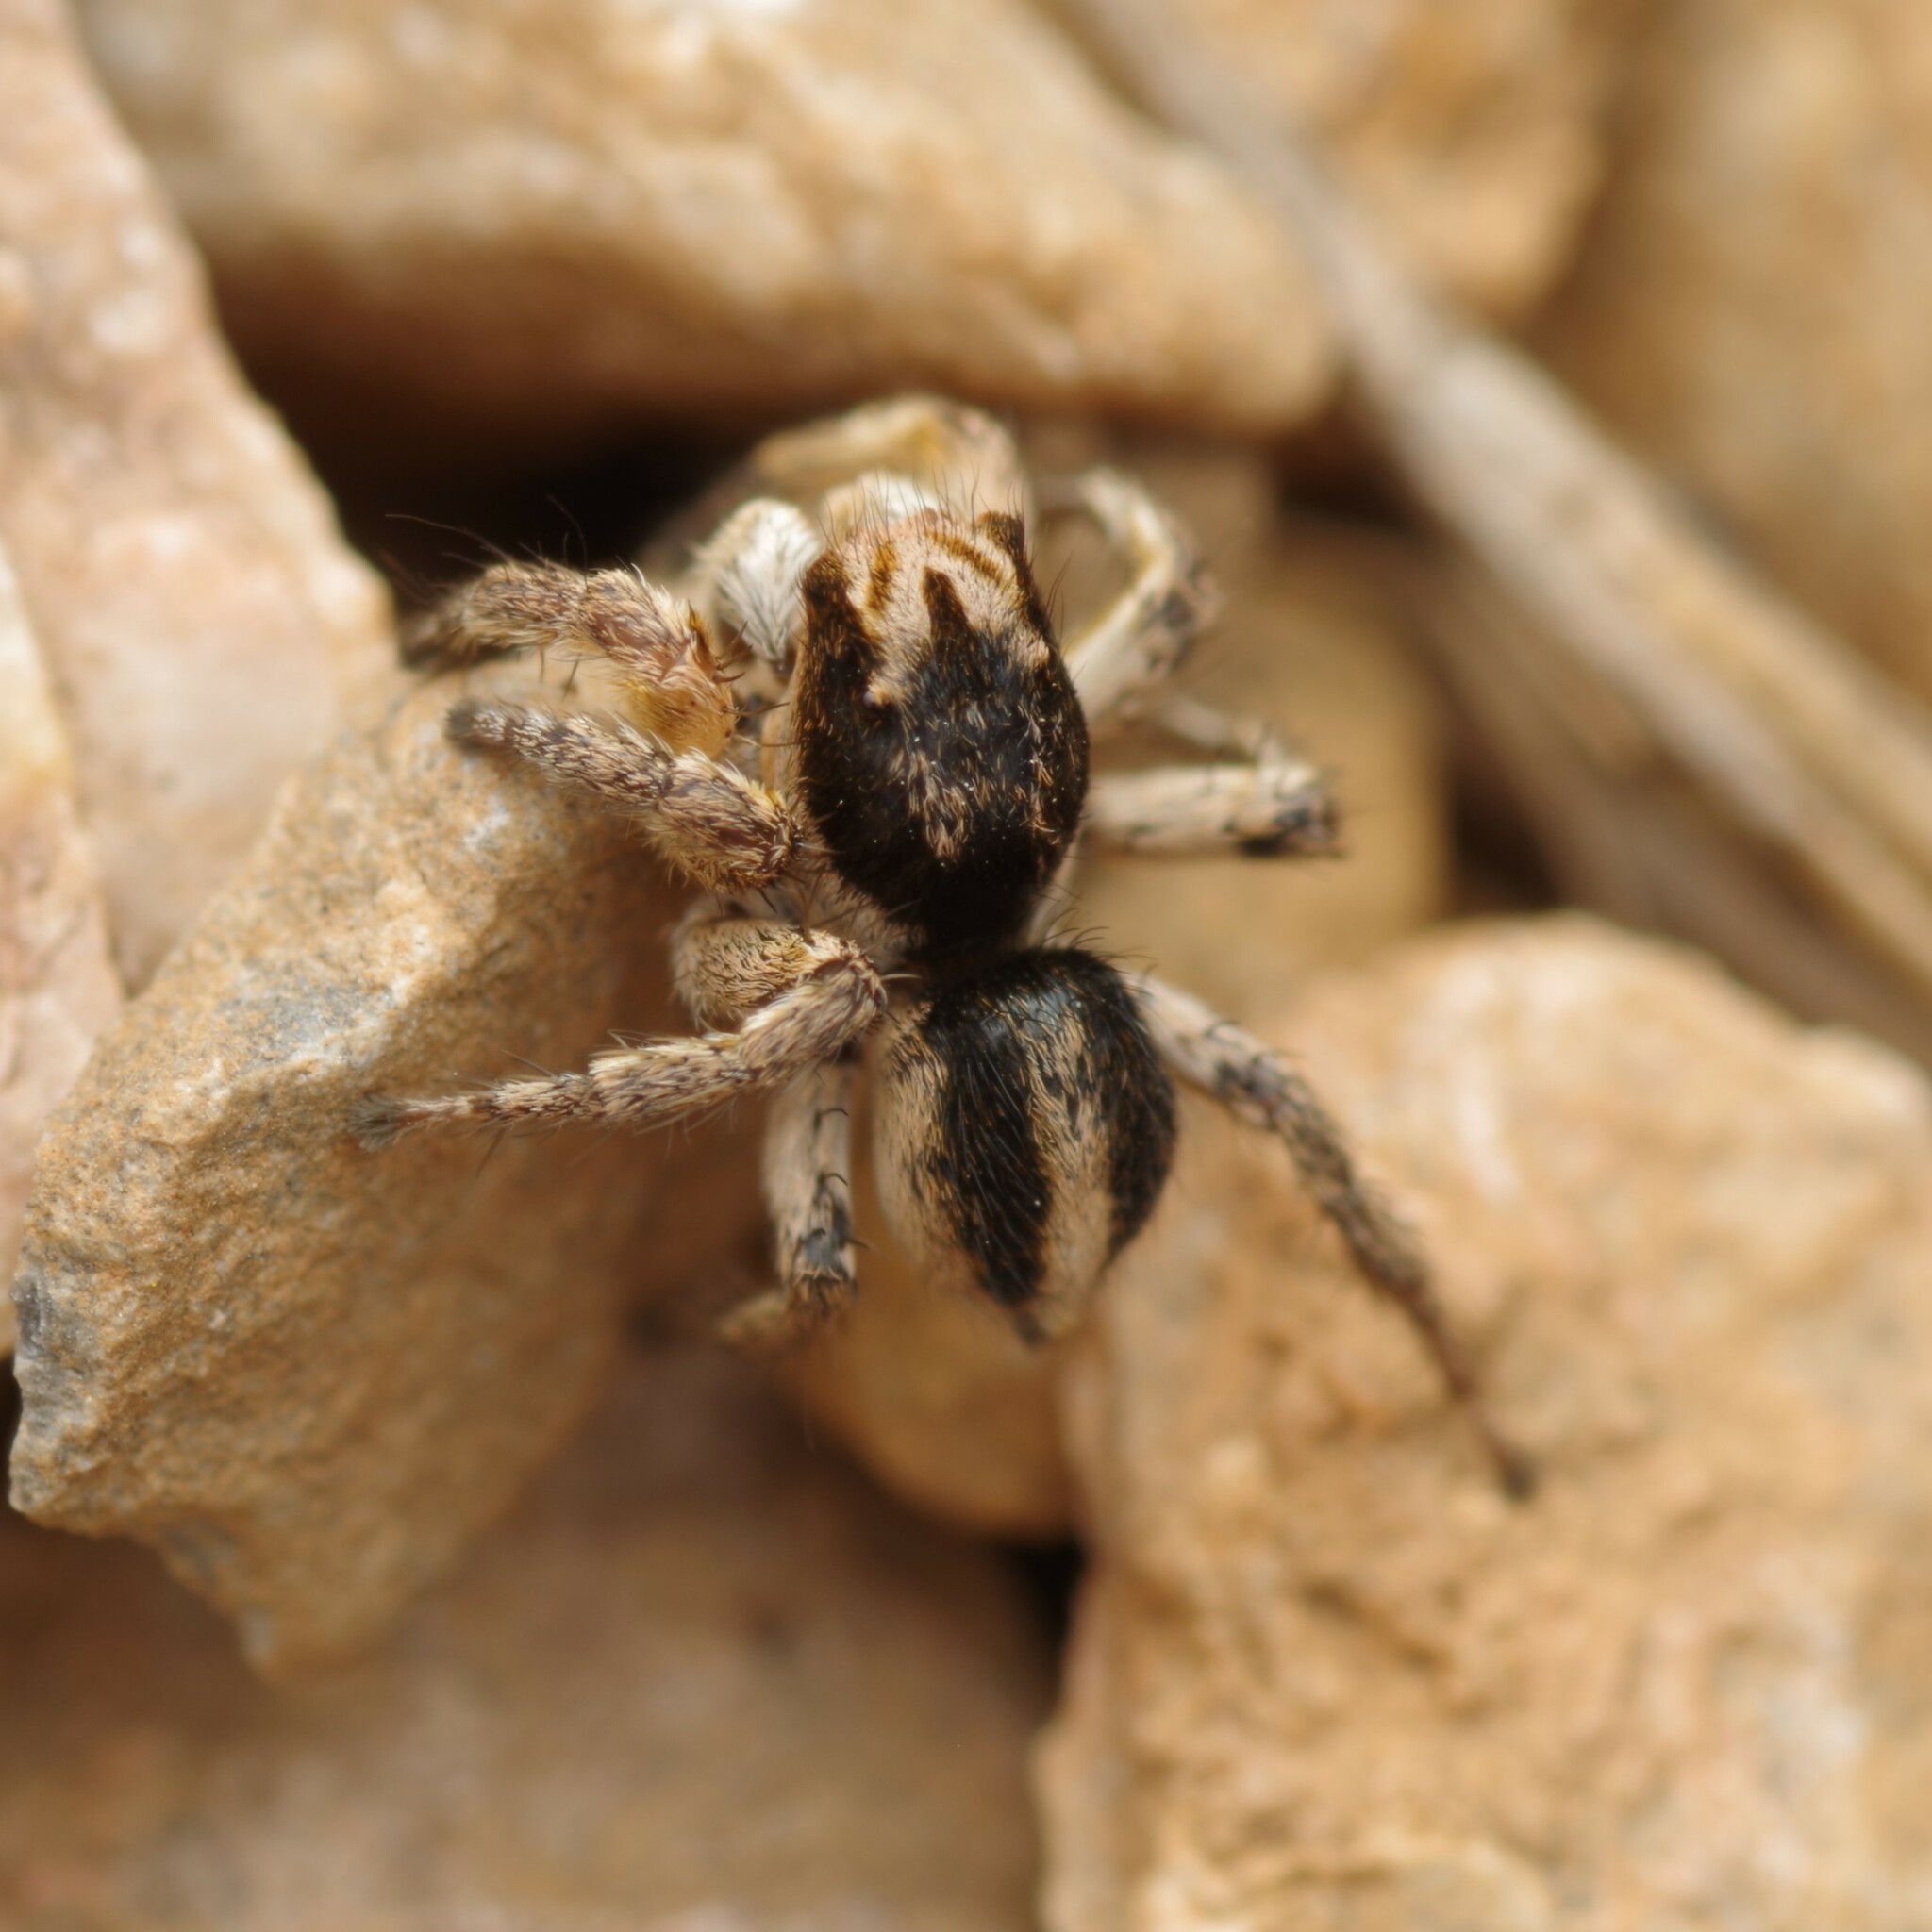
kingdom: Animalia
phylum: Arthropoda
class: Arachnida
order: Araneae
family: Salticidae
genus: Aelurillus
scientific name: Aelurillus v-insignitus
